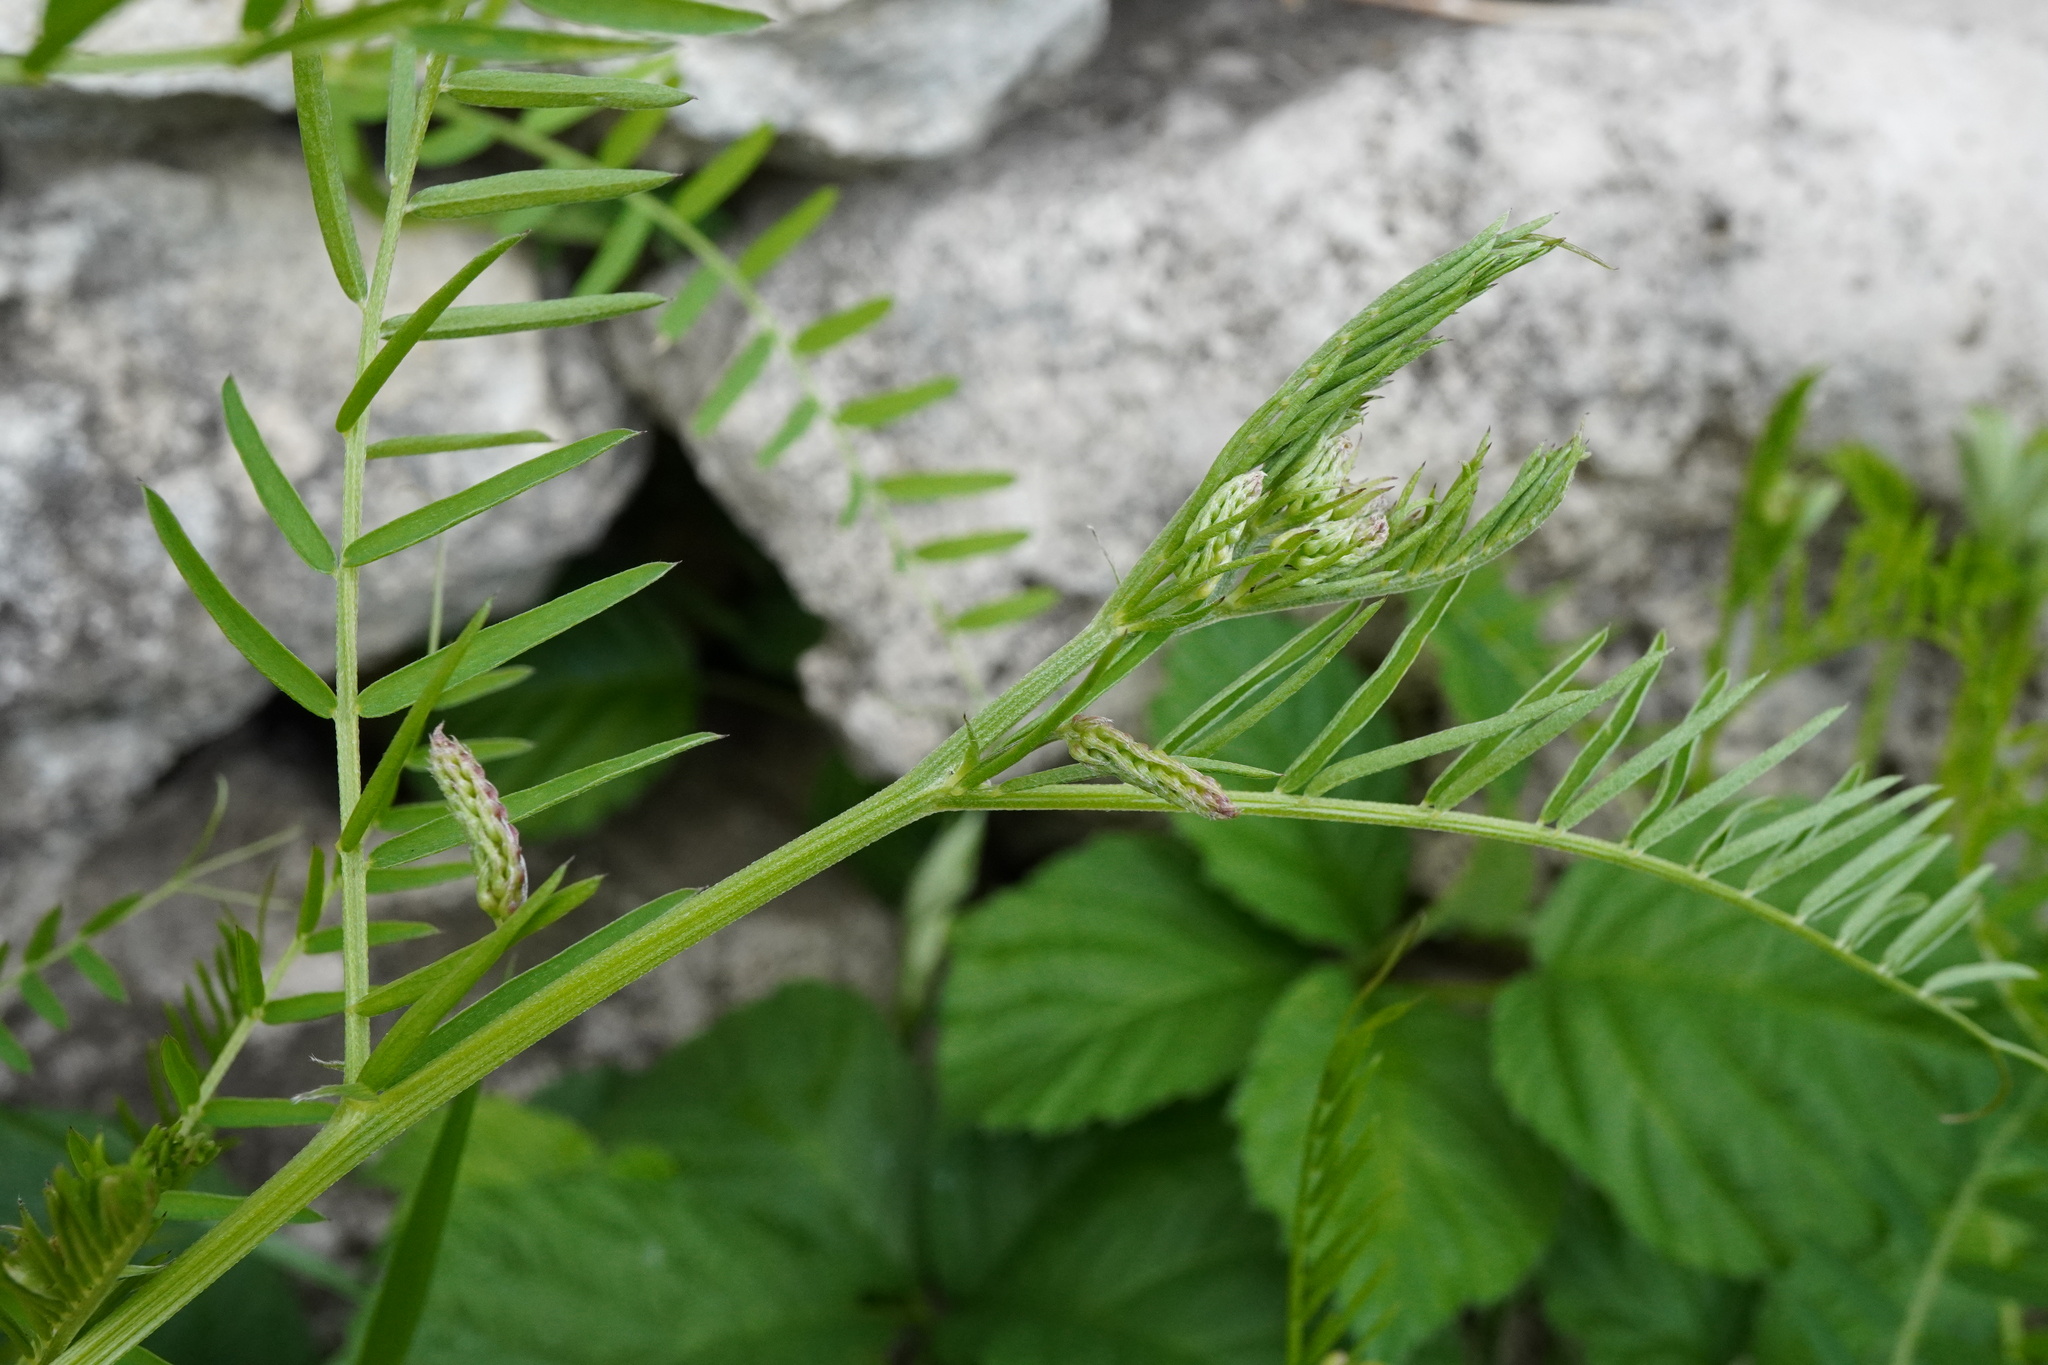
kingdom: Plantae
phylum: Tracheophyta
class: Magnoliopsida
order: Fabales
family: Fabaceae
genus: Vicia
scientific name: Vicia tenuifolia
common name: Fine-leaved vetch
